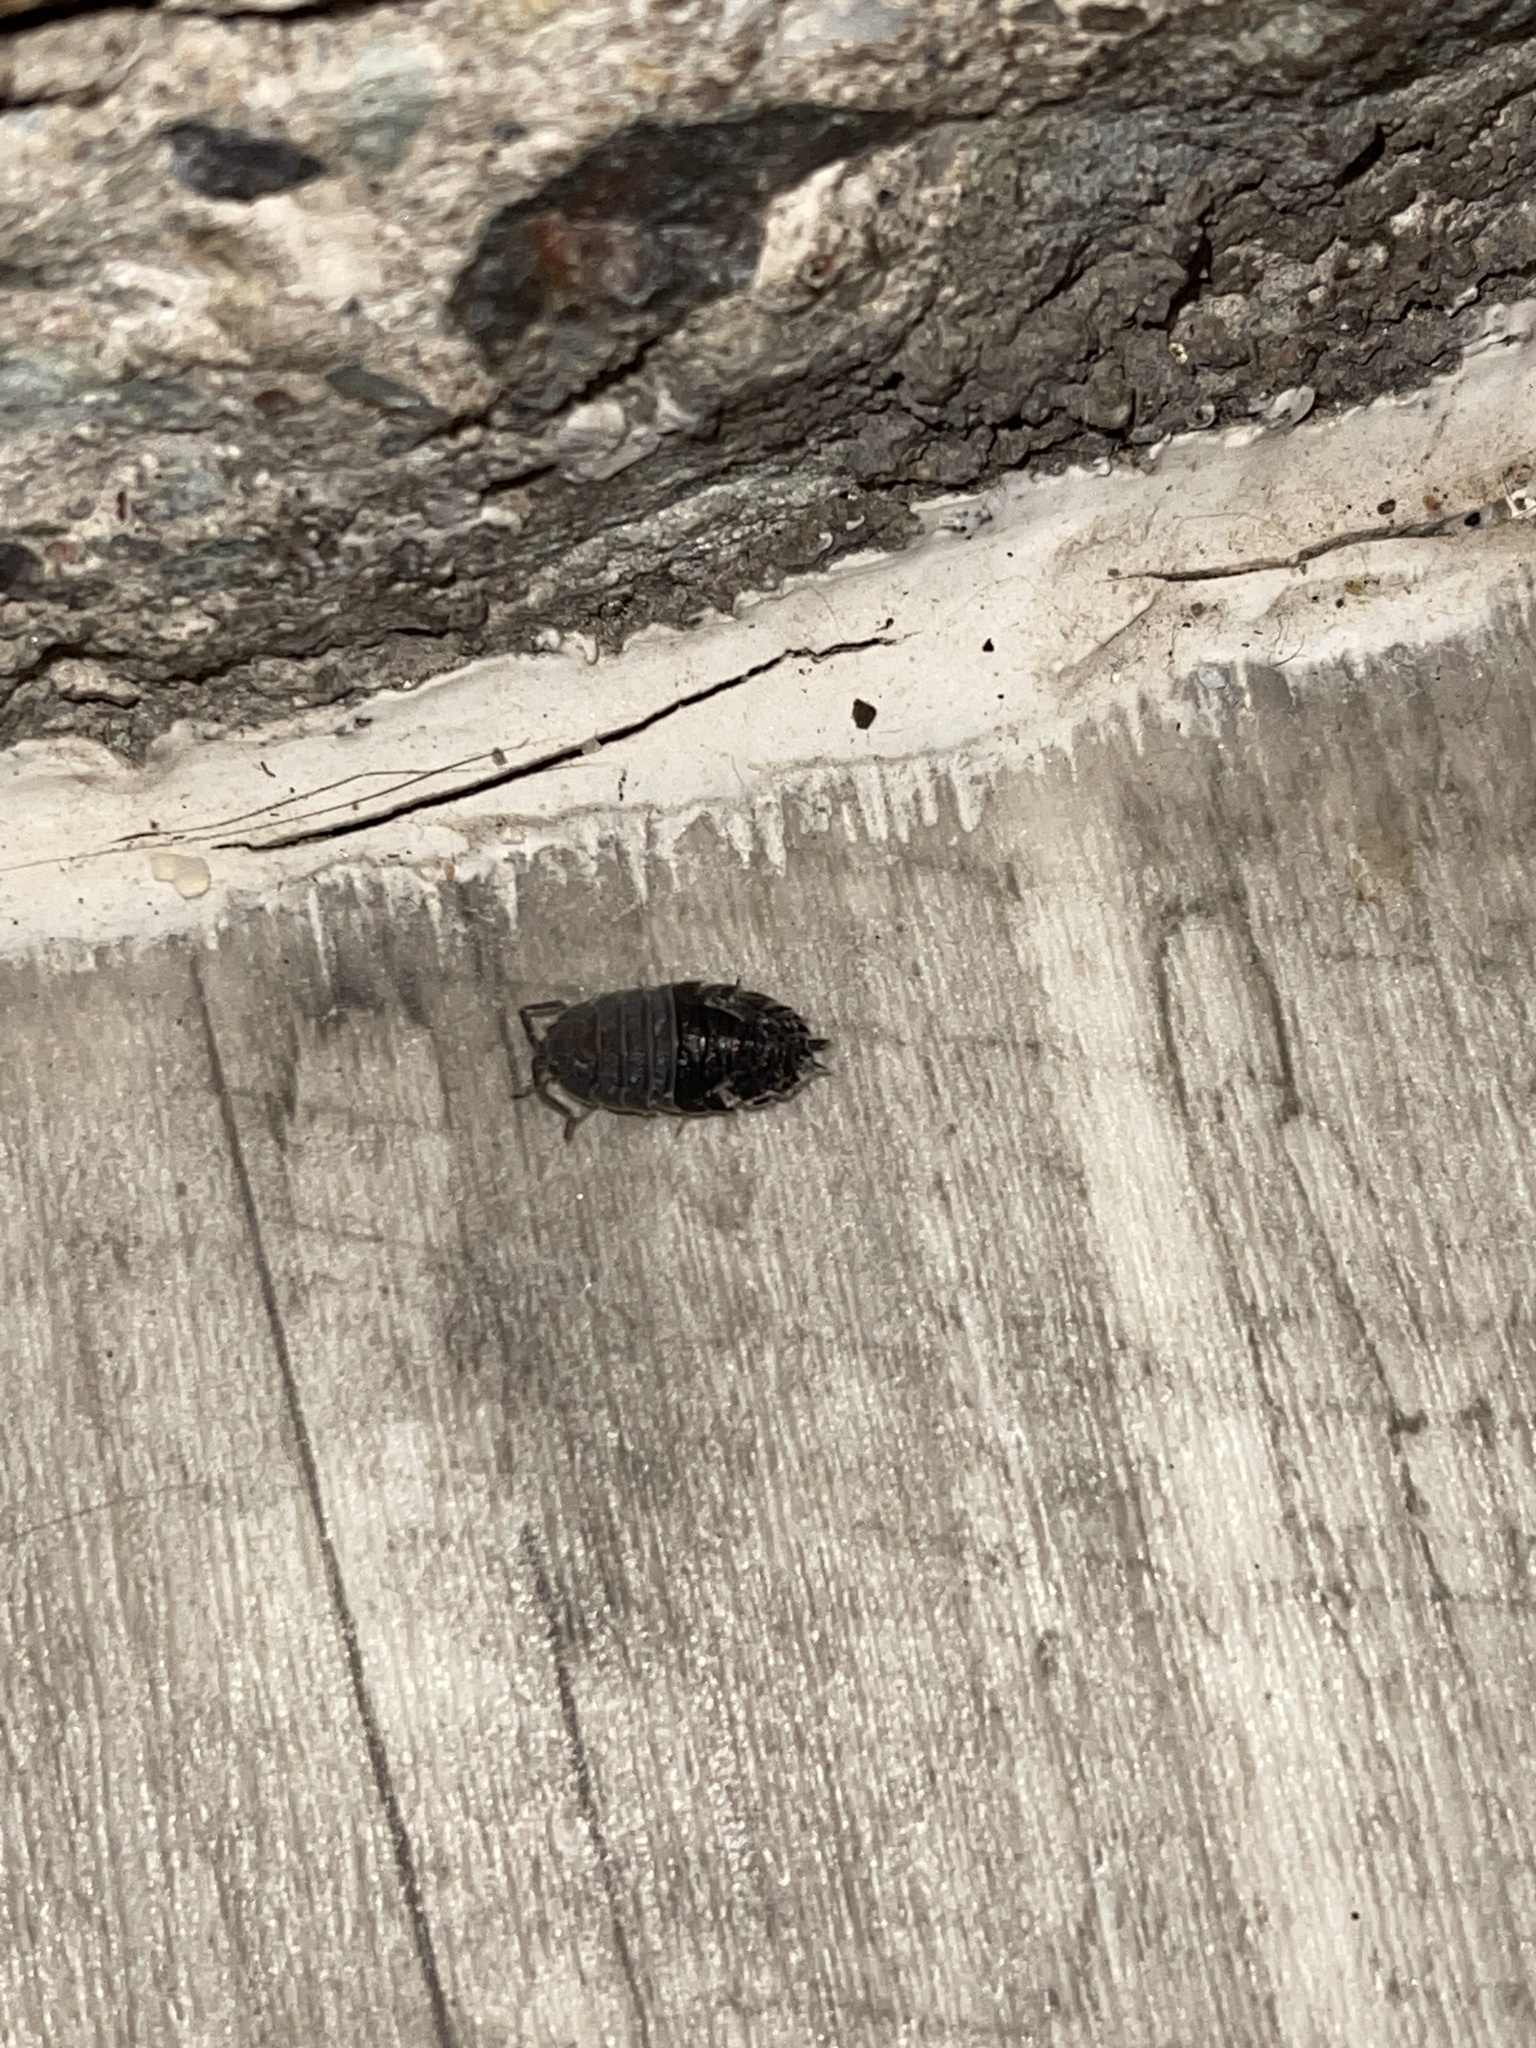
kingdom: Animalia
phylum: Arthropoda
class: Malacostraca
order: Isopoda
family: Porcellionidae
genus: Porcellio
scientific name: Porcellio scaber
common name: Common rough woodlouse
